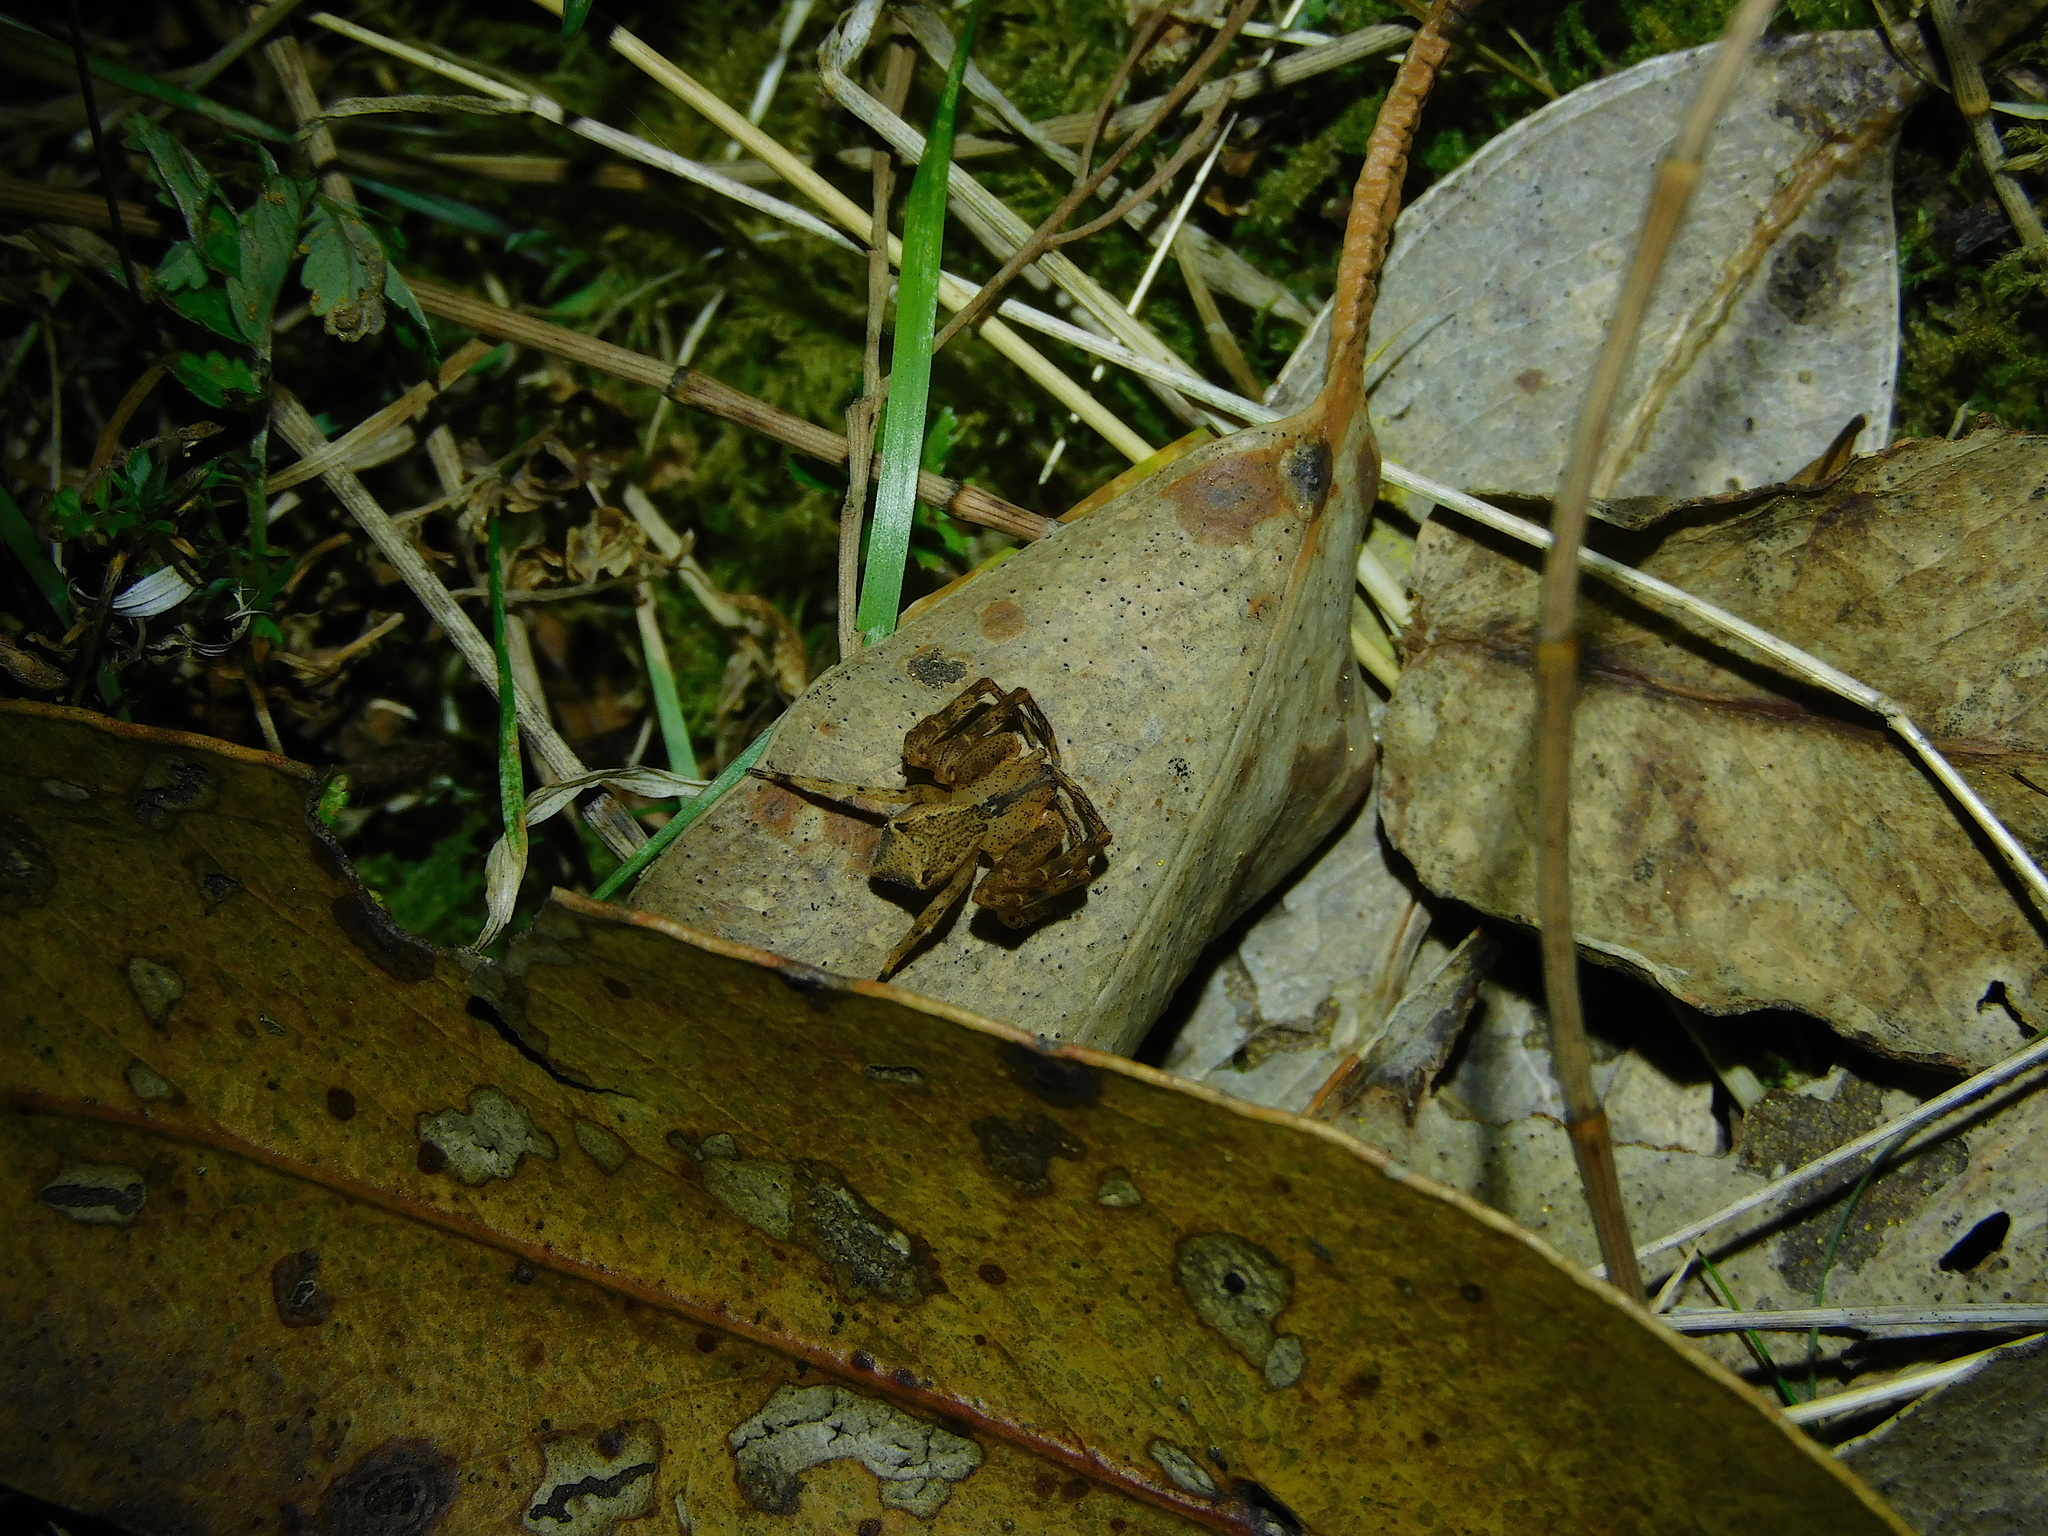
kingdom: Animalia
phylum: Arthropoda
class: Arachnida
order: Araneae
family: Thomisidae
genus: Sidymella
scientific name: Sidymella trapezia
